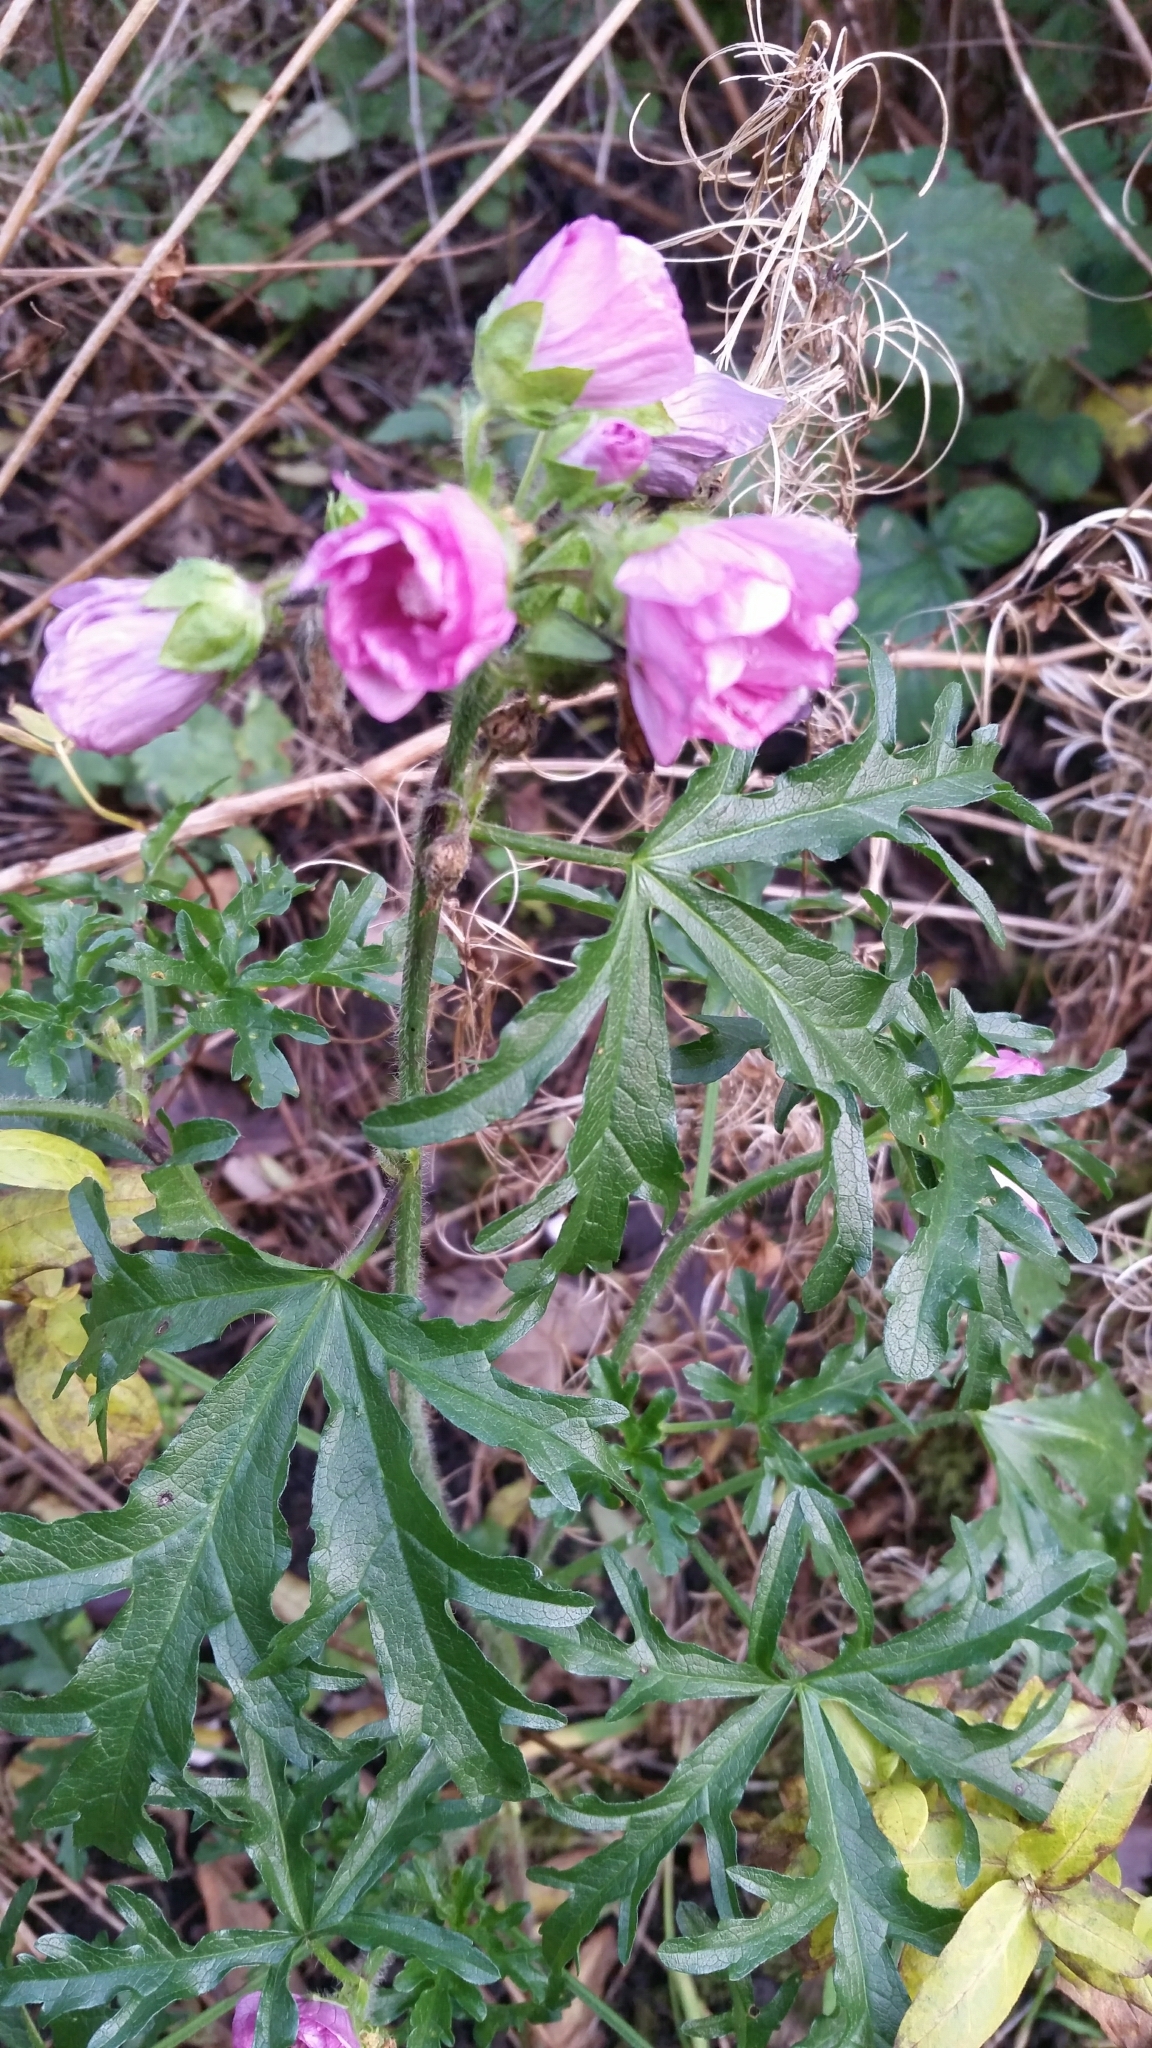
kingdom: Plantae
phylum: Tracheophyta
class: Magnoliopsida
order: Malvales
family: Malvaceae
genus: Malva
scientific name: Malva moschata
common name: Musk mallow
